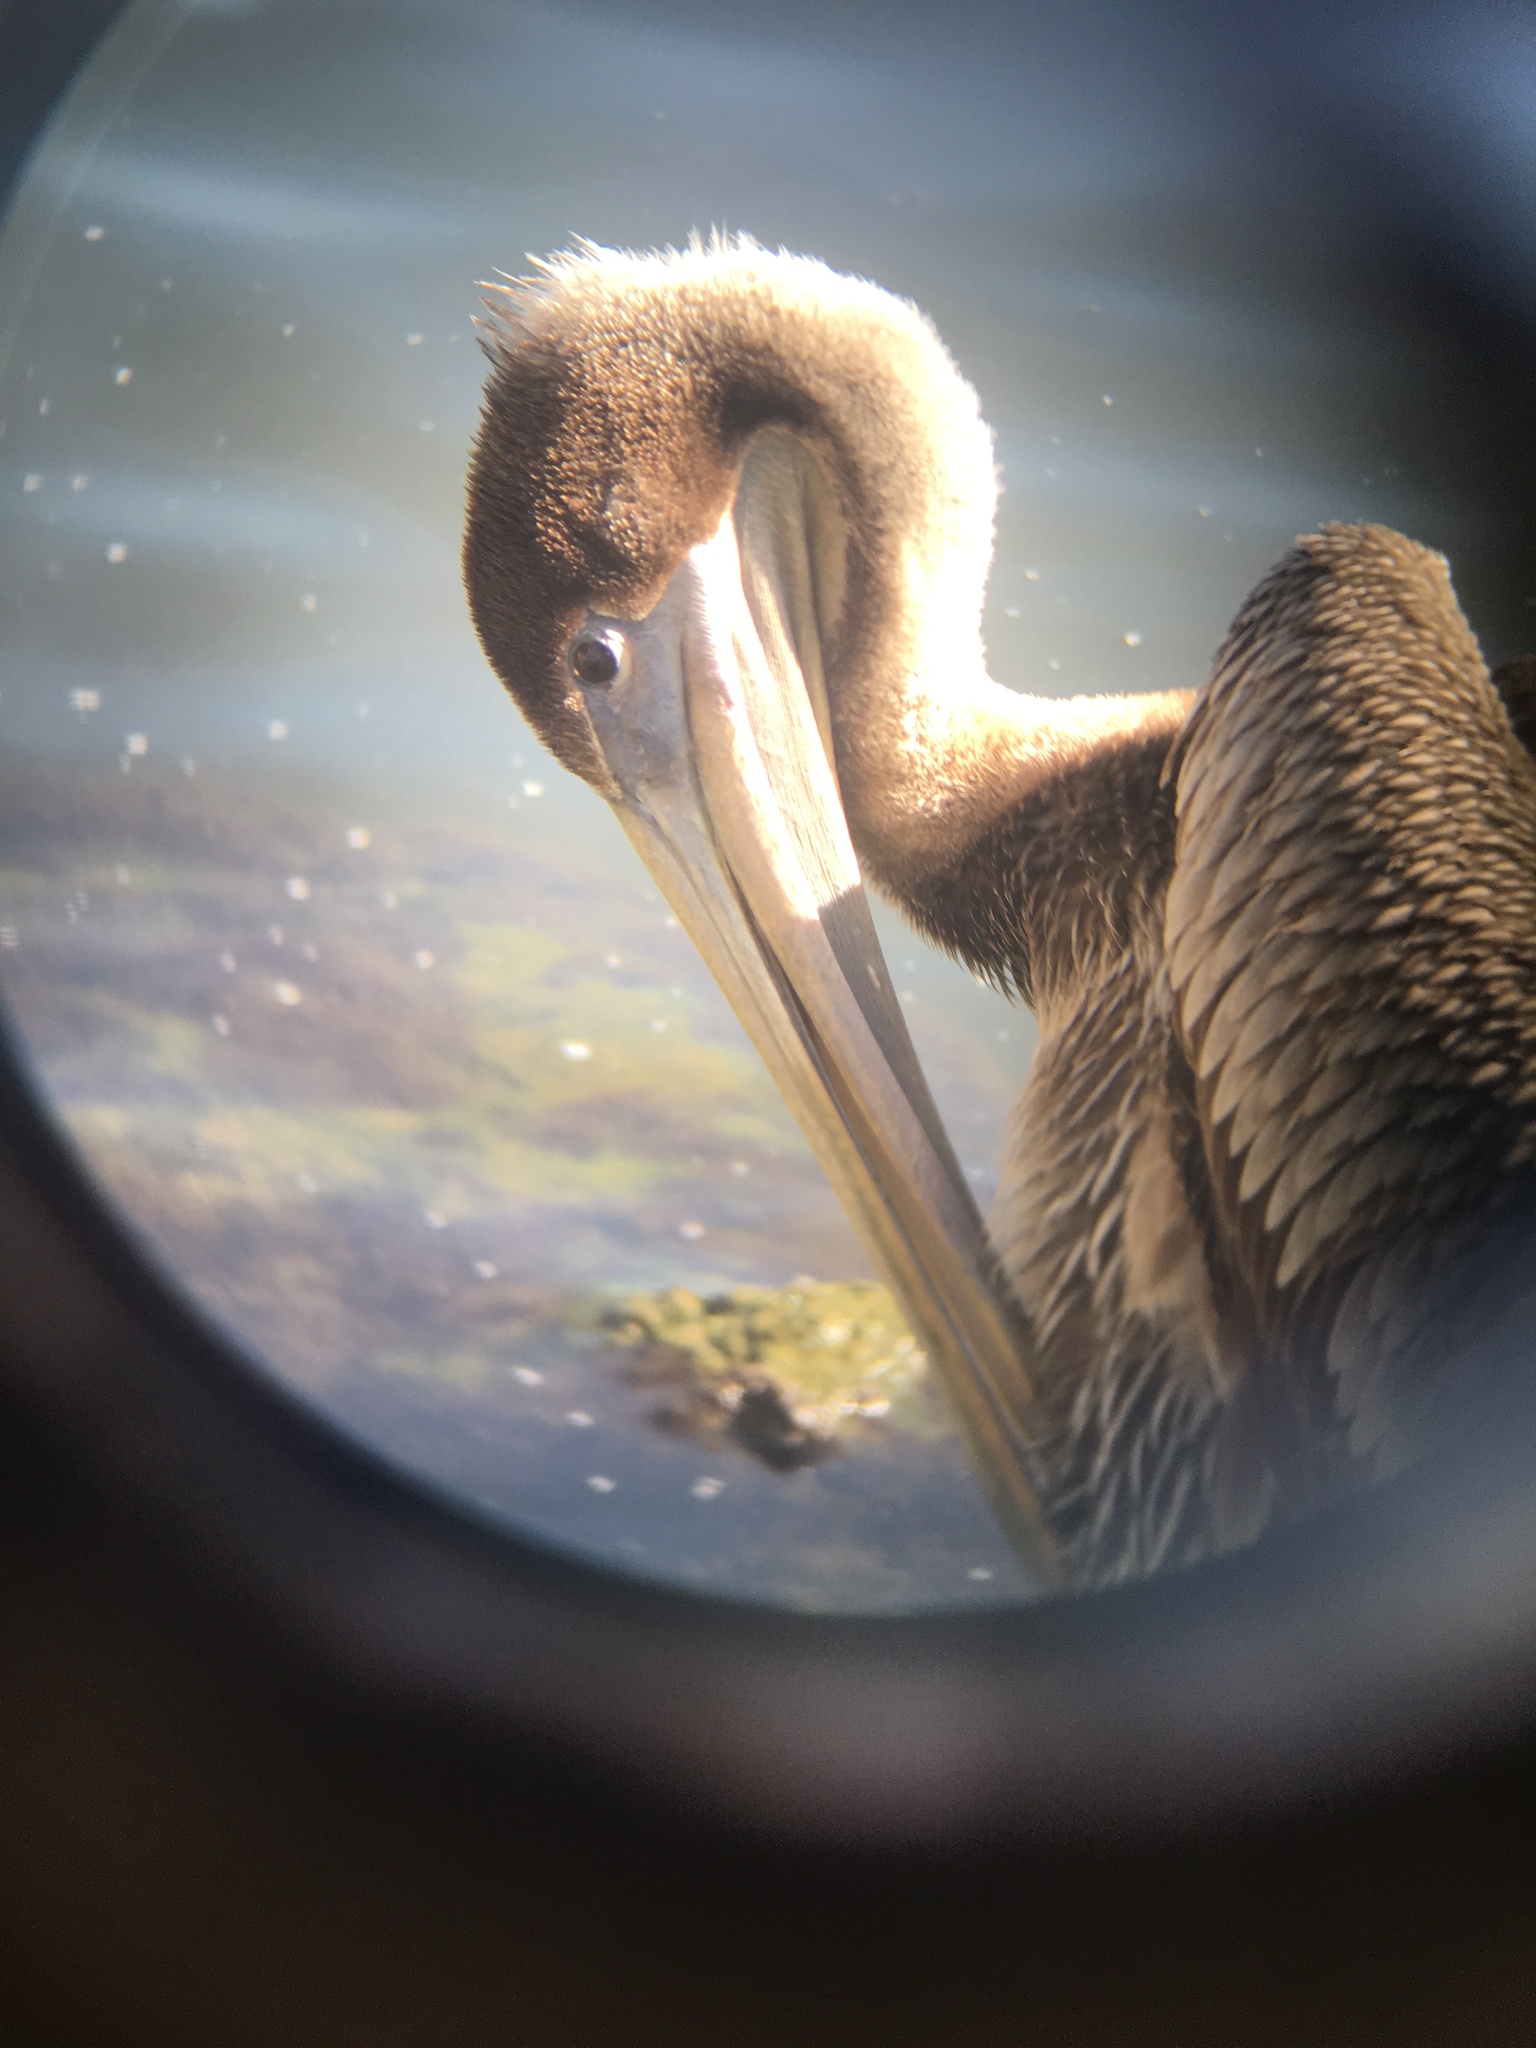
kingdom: Animalia
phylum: Chordata
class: Aves
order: Pelecaniformes
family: Pelecanidae
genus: Pelecanus
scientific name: Pelecanus occidentalis
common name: Brown pelican
